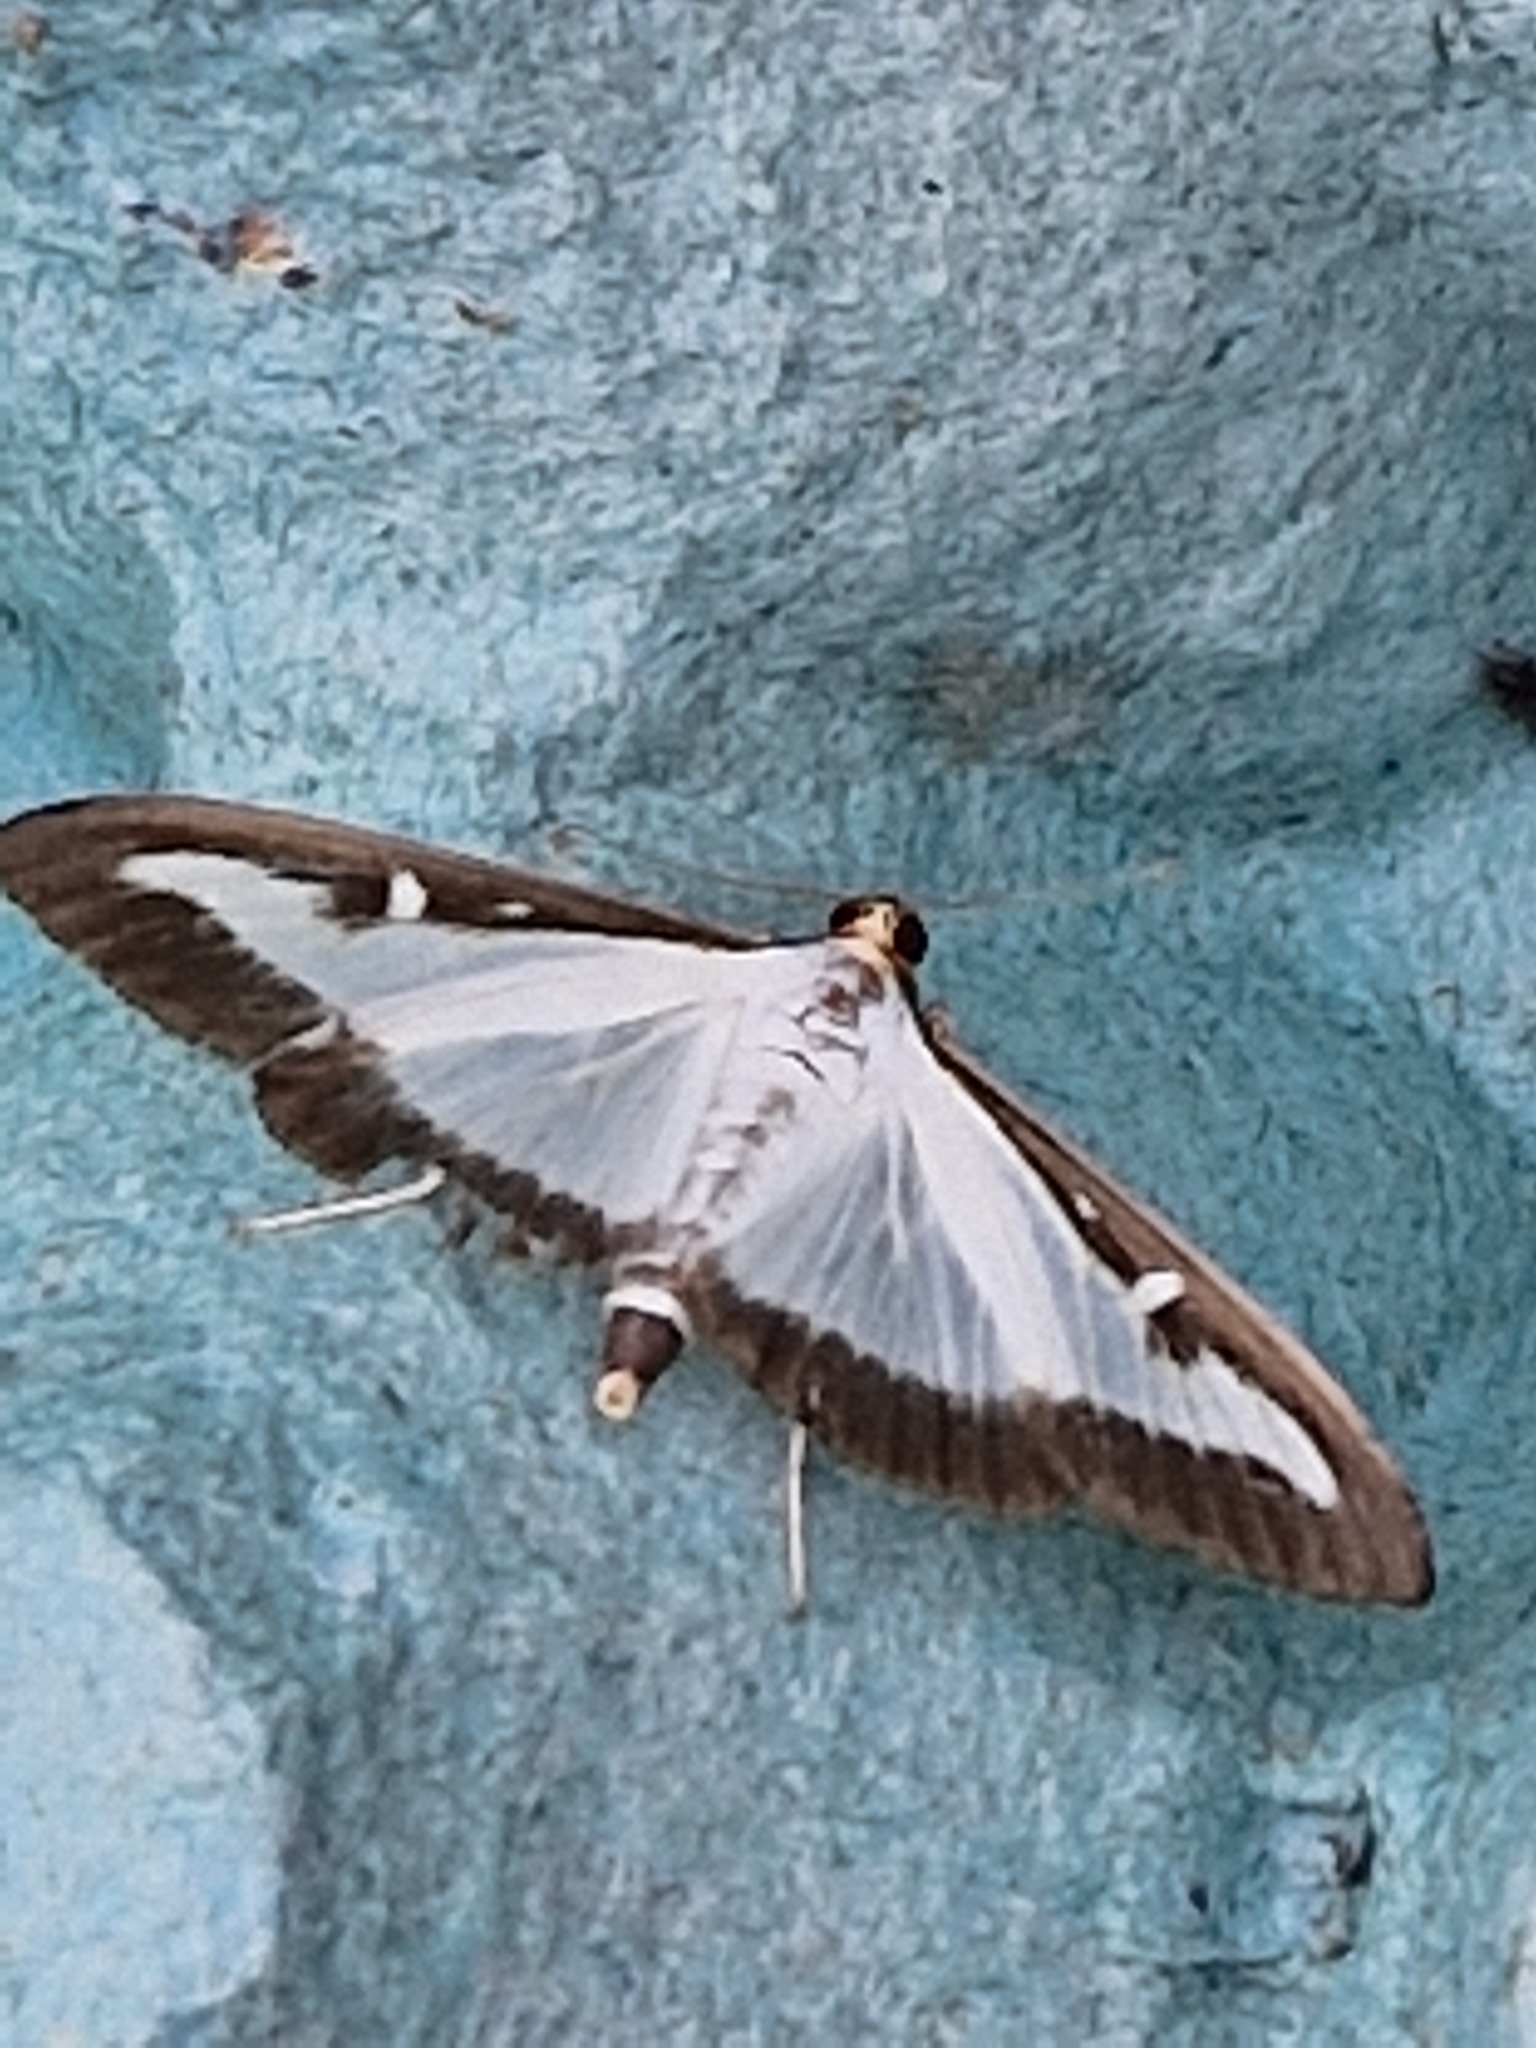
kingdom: Animalia
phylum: Arthropoda
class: Insecta
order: Lepidoptera
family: Crambidae
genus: Cydalima
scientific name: Cydalima perspectalis
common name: Box tree moth
